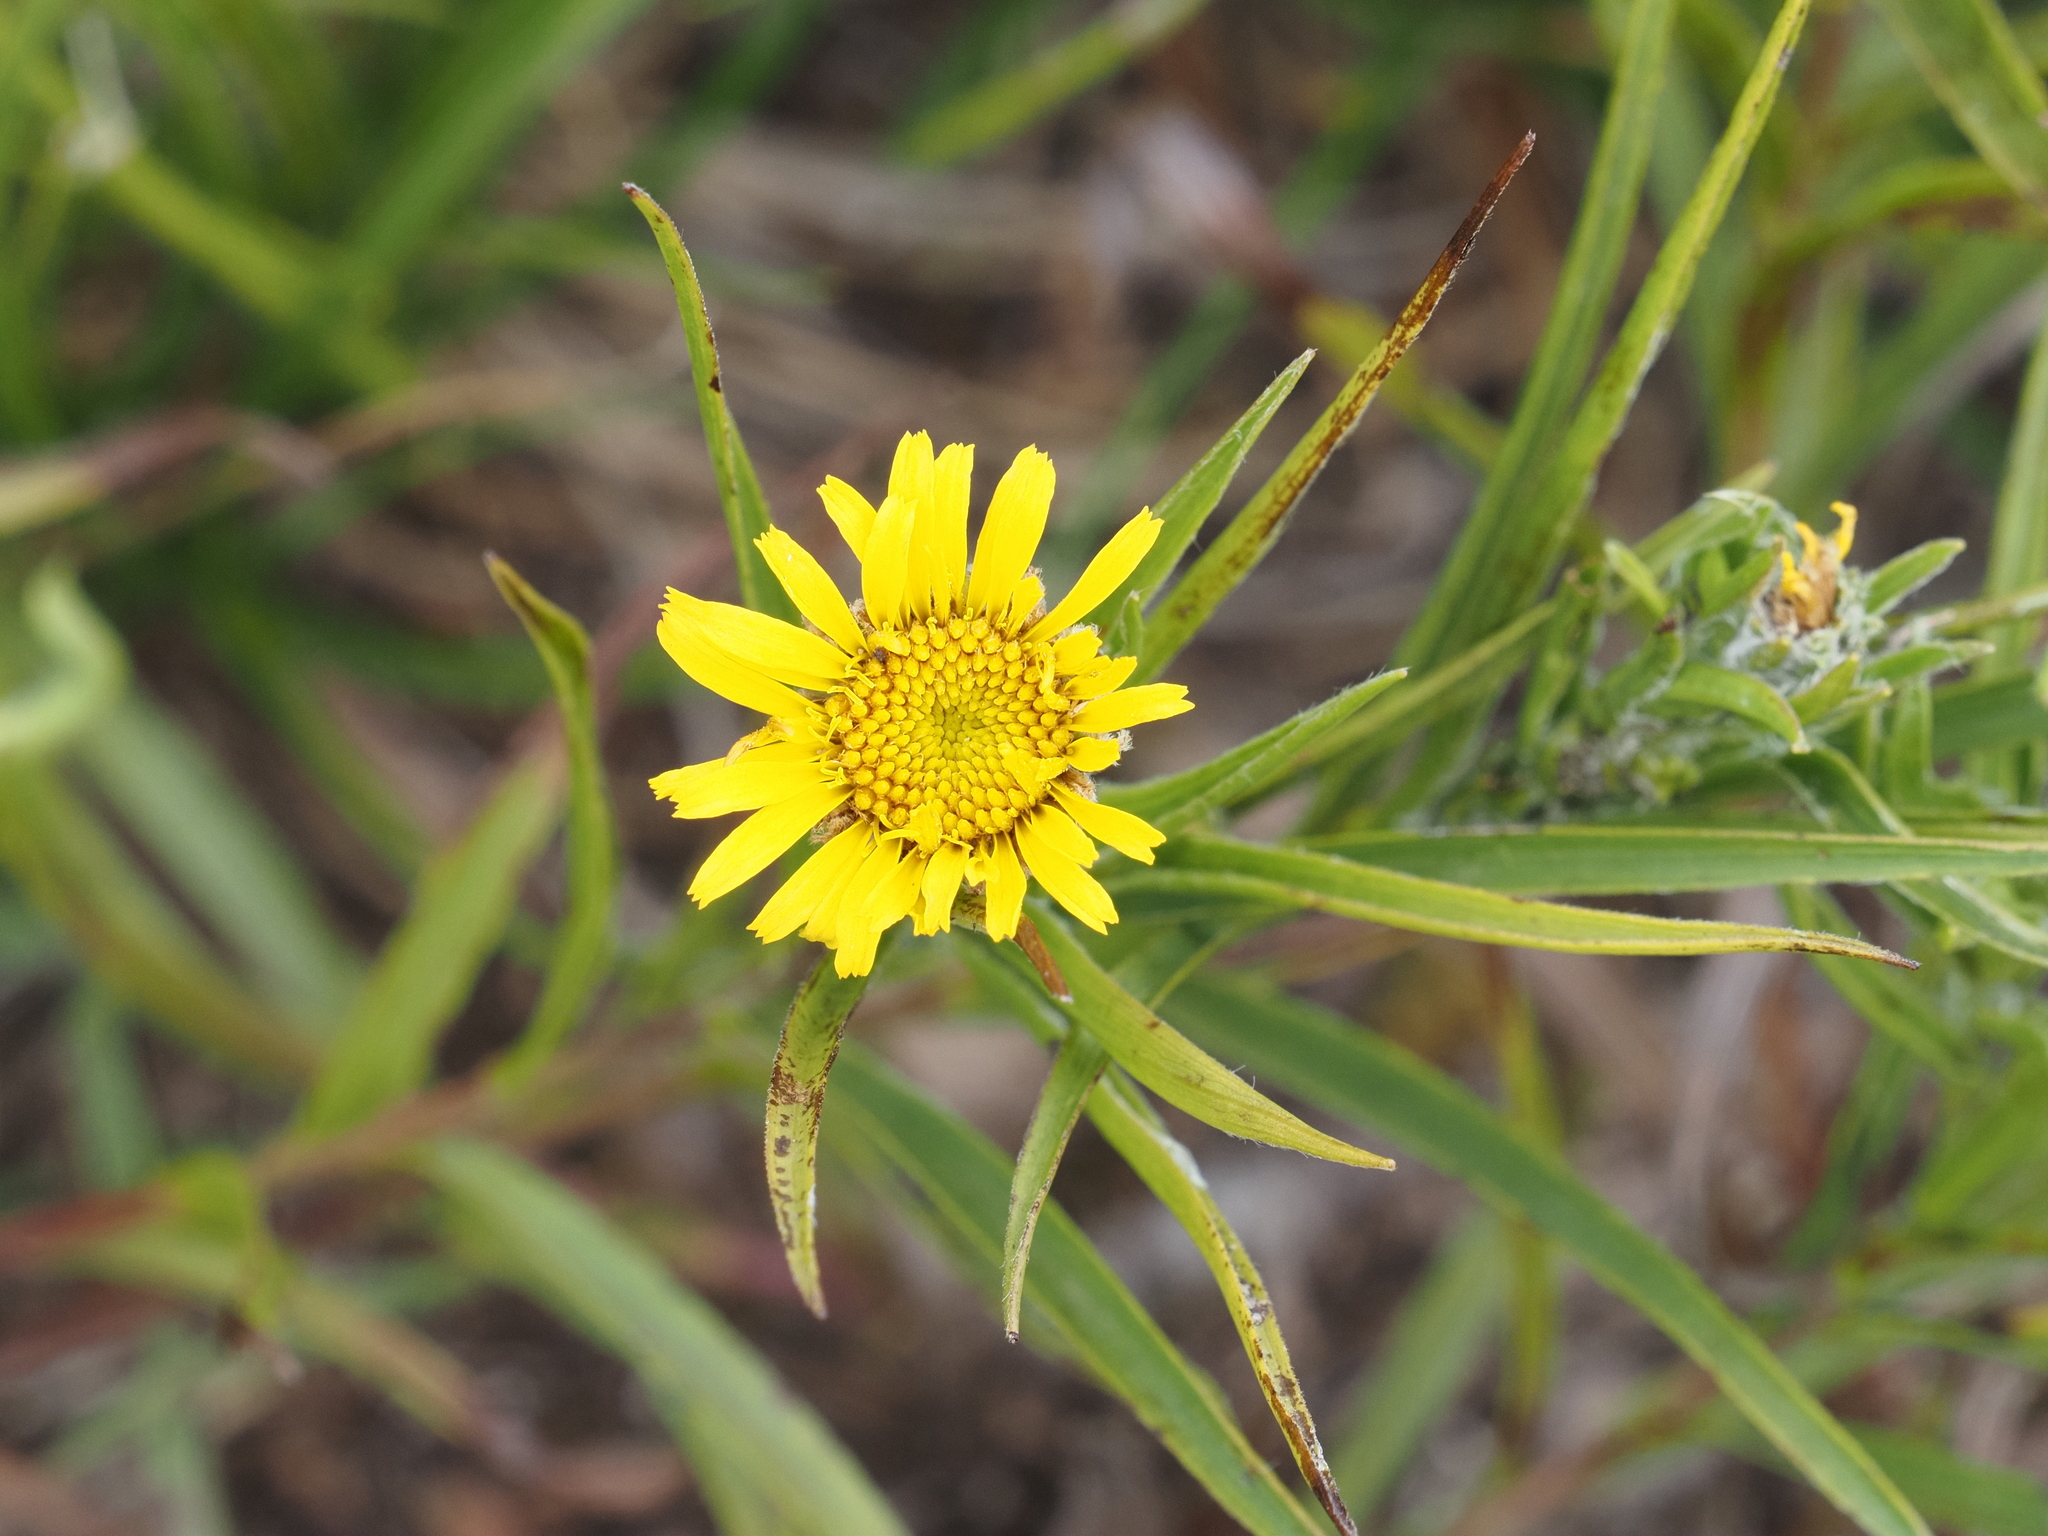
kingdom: Plantae
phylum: Tracheophyta
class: Magnoliopsida
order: Asterales
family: Asteraceae
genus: Pentanema
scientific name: Pentanema ensifolium
